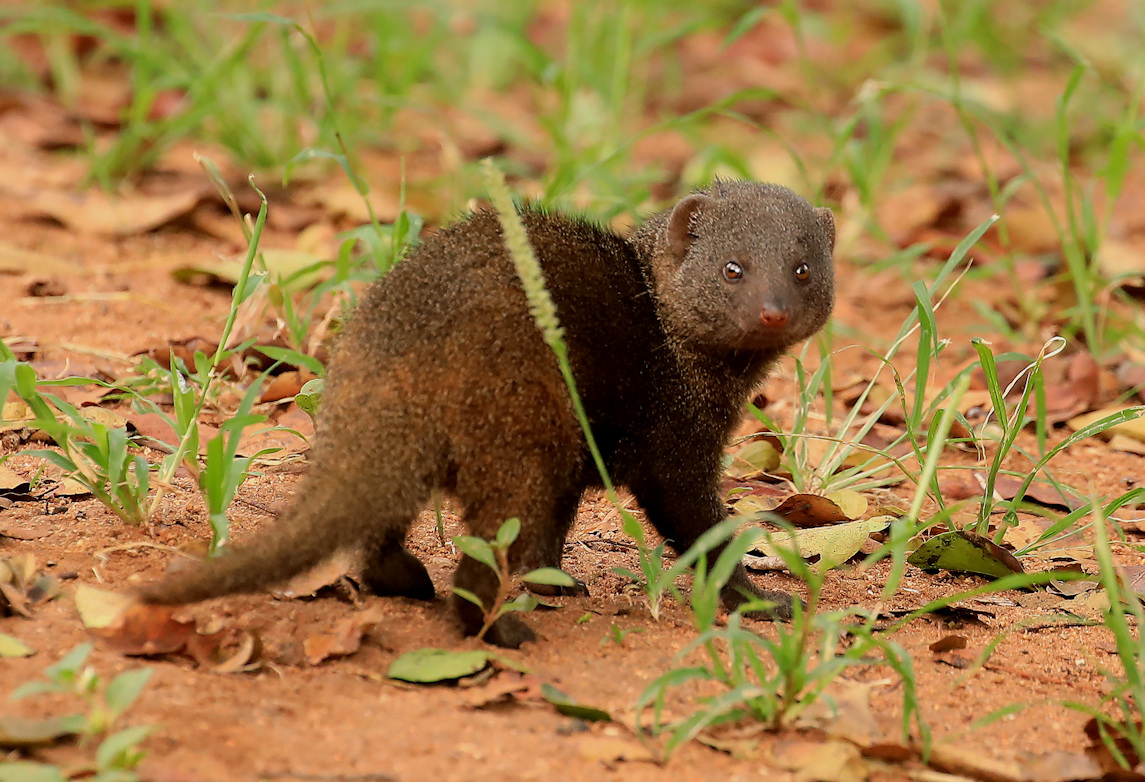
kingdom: Animalia
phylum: Chordata
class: Mammalia
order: Carnivora
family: Herpestidae
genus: Helogale
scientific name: Helogale parvula
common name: Common dwarf mongoose
